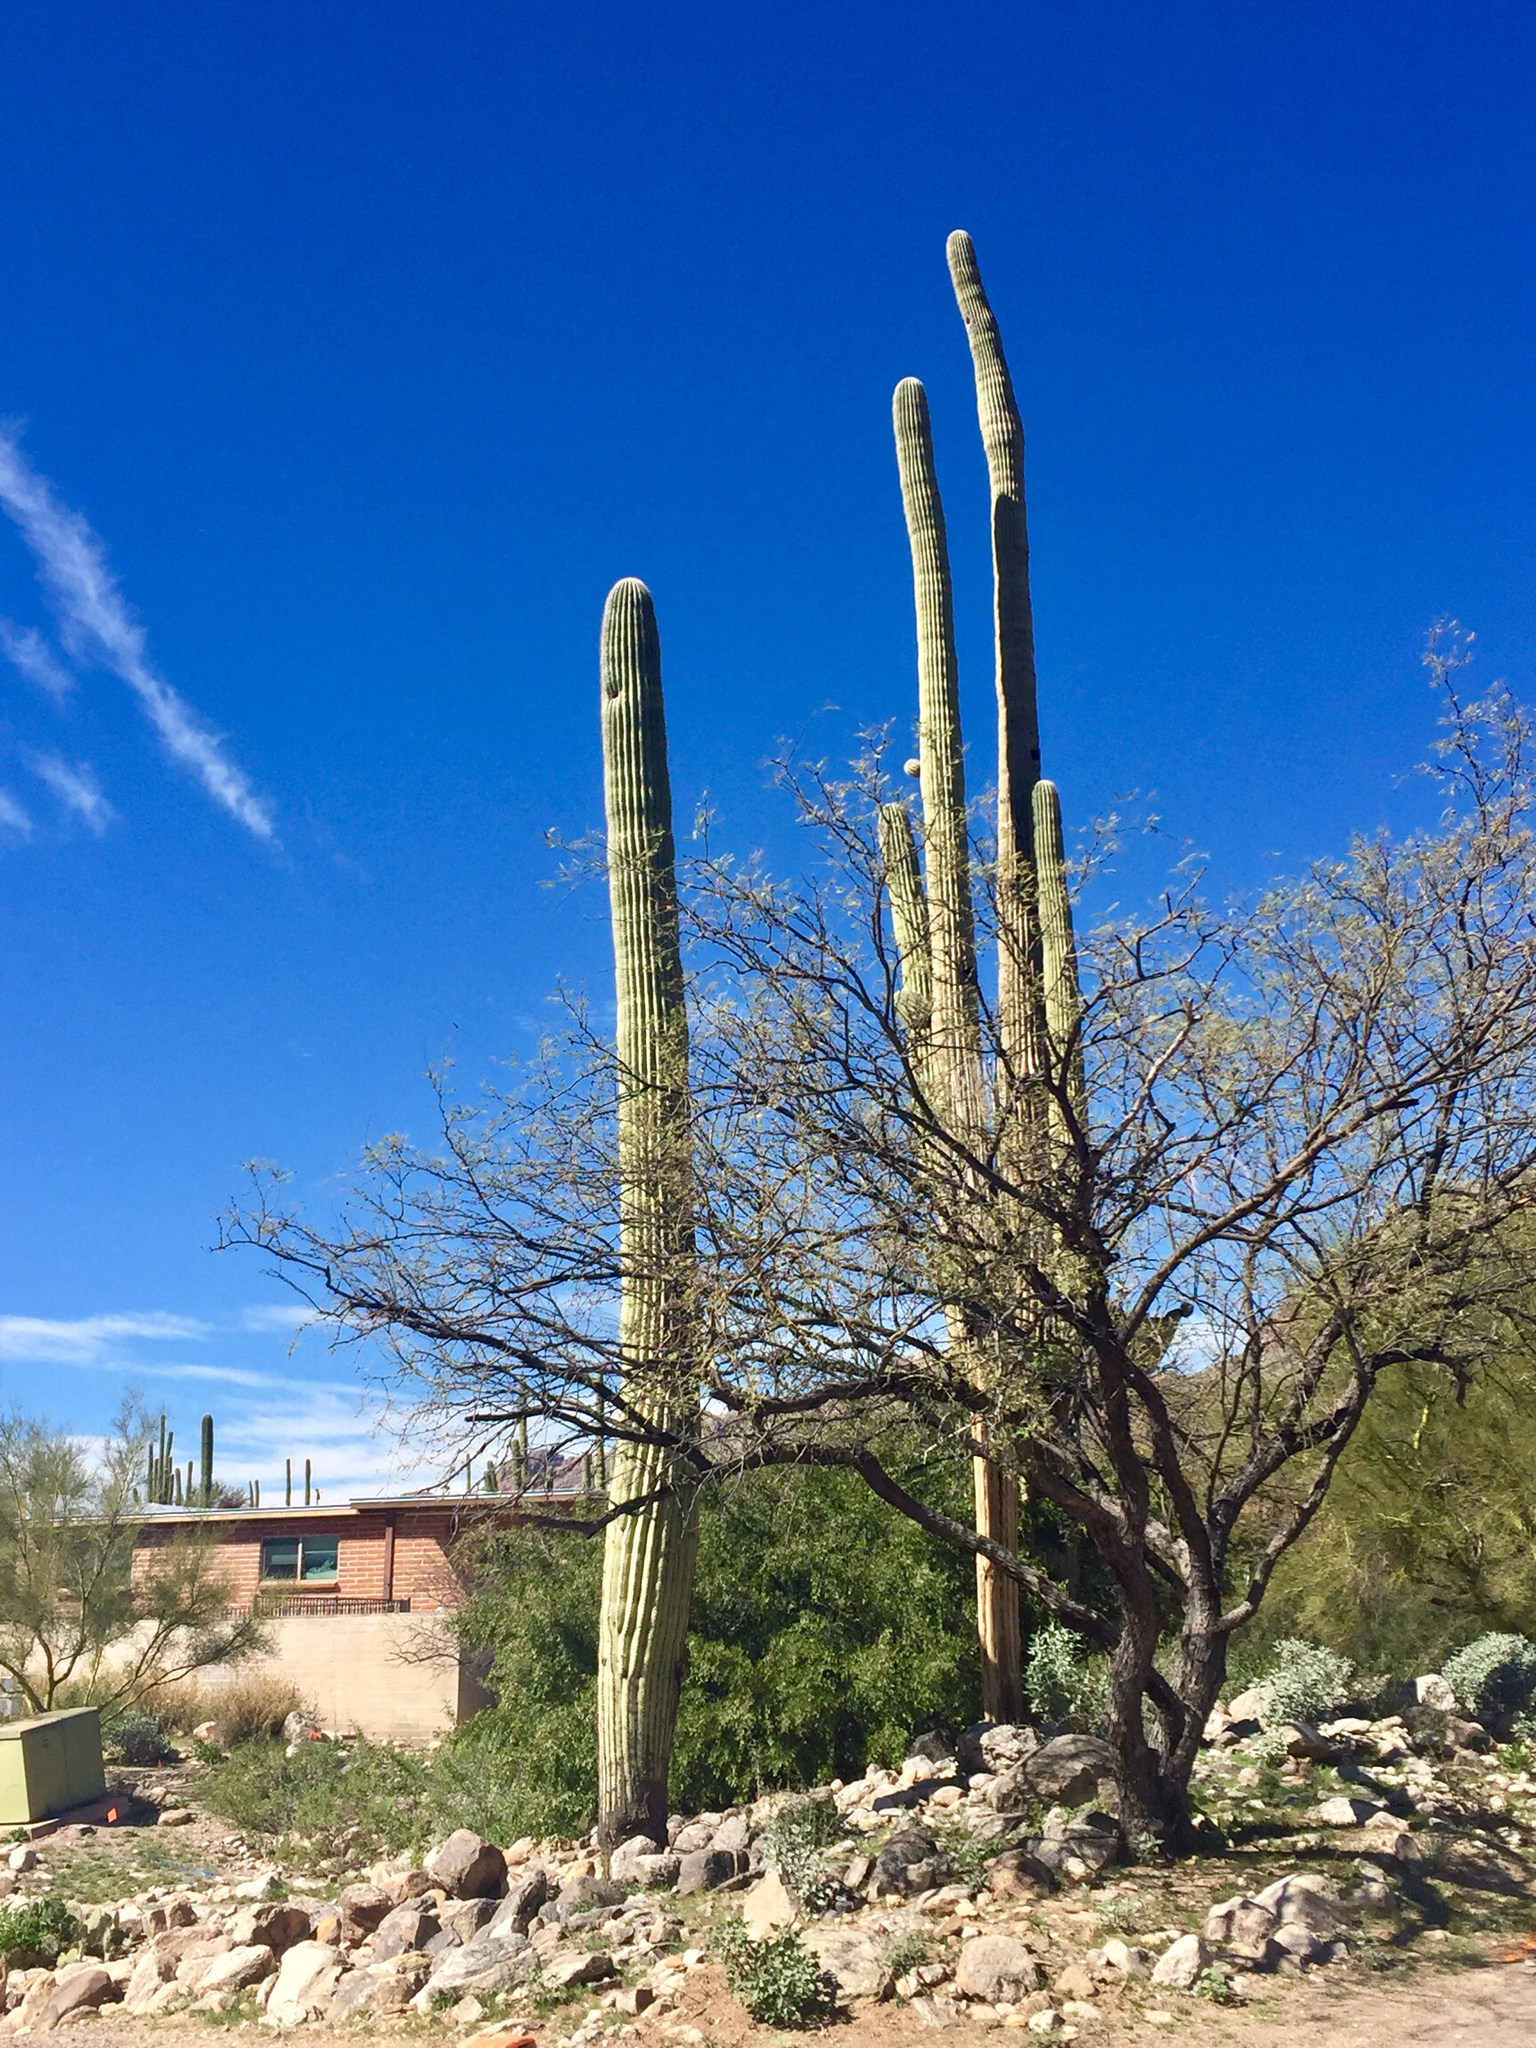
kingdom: Plantae
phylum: Tracheophyta
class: Magnoliopsida
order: Caryophyllales
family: Cactaceae
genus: Carnegiea
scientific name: Carnegiea gigantea
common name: Saguaro
